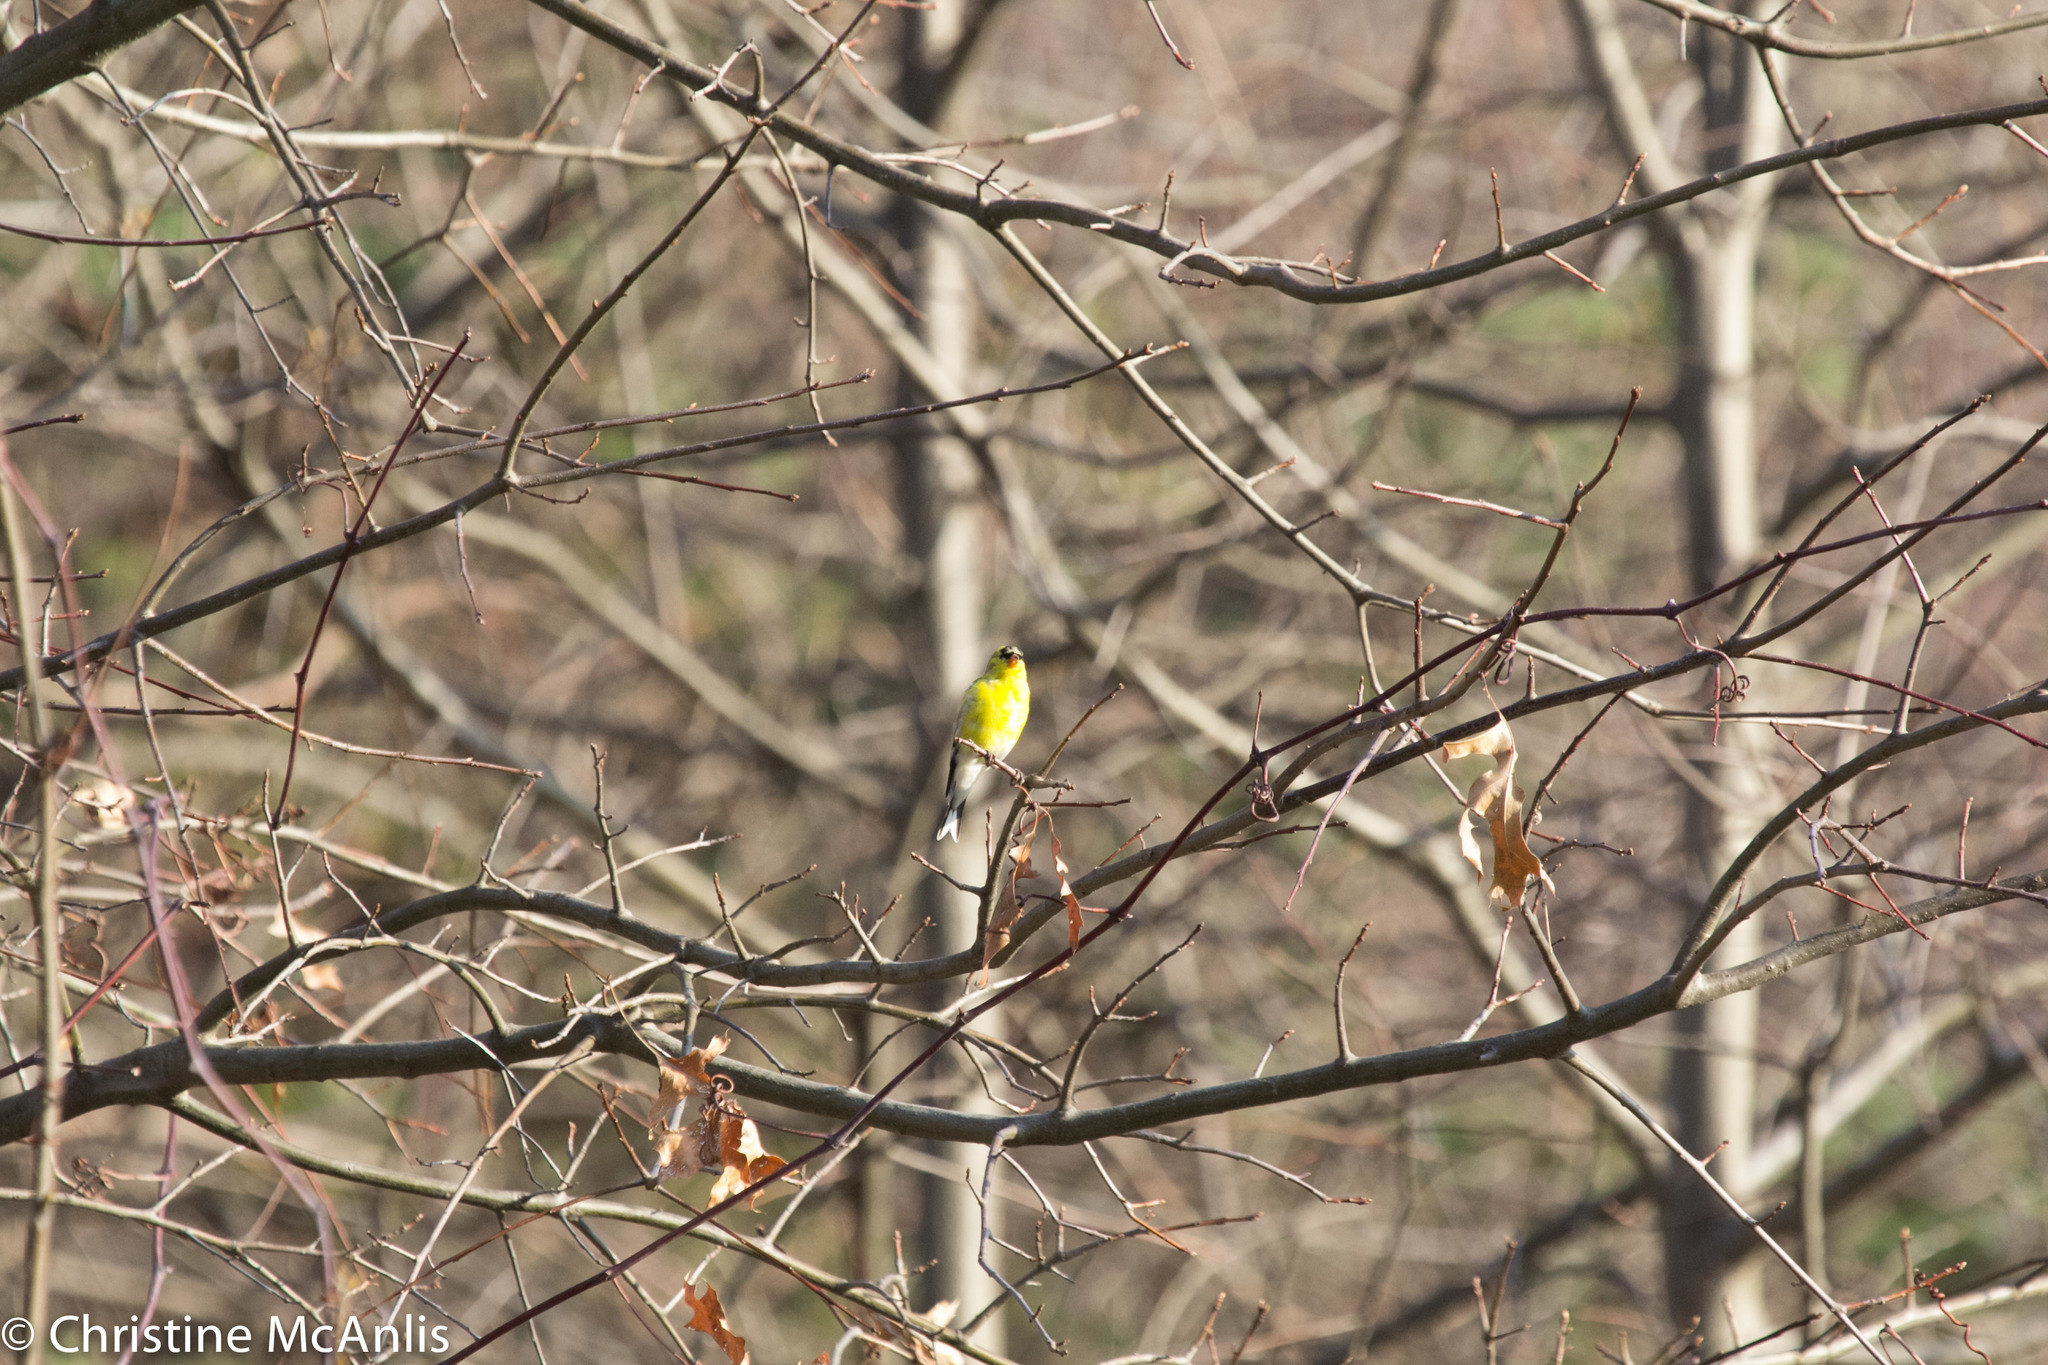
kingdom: Animalia
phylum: Chordata
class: Aves
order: Passeriformes
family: Fringillidae
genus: Spinus
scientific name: Spinus tristis
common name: American goldfinch
